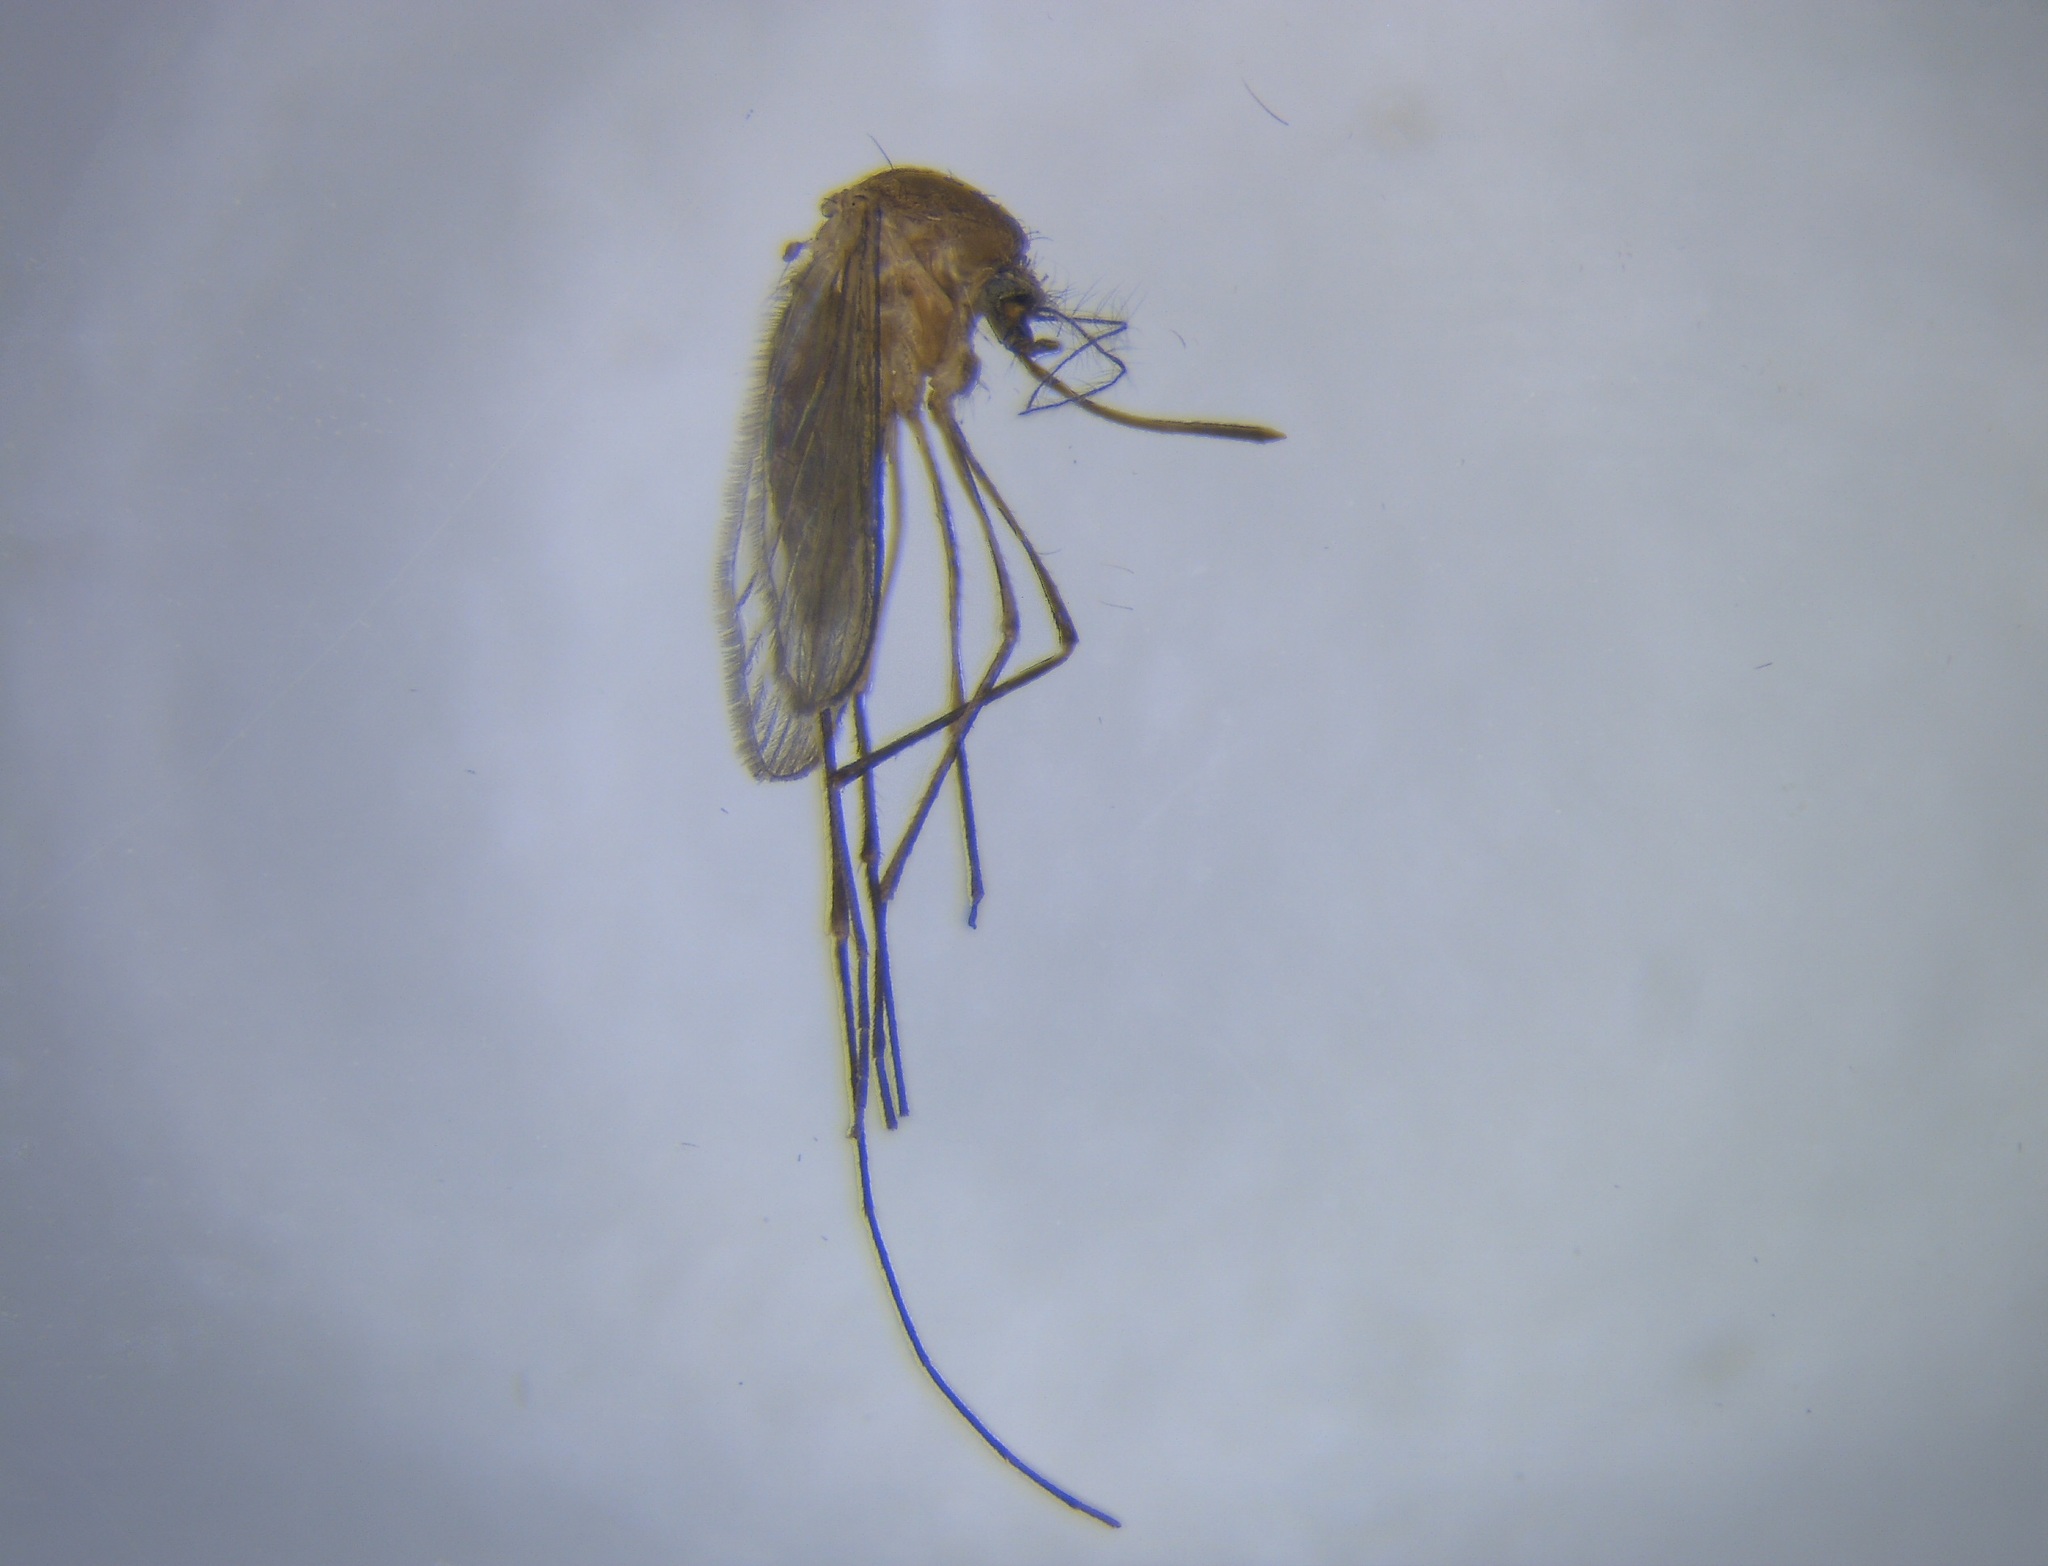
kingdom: Animalia
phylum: Arthropoda
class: Insecta
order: Diptera
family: Culicidae
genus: Culex
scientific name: Culex quinquefasciatus
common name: Southern house mosquito
